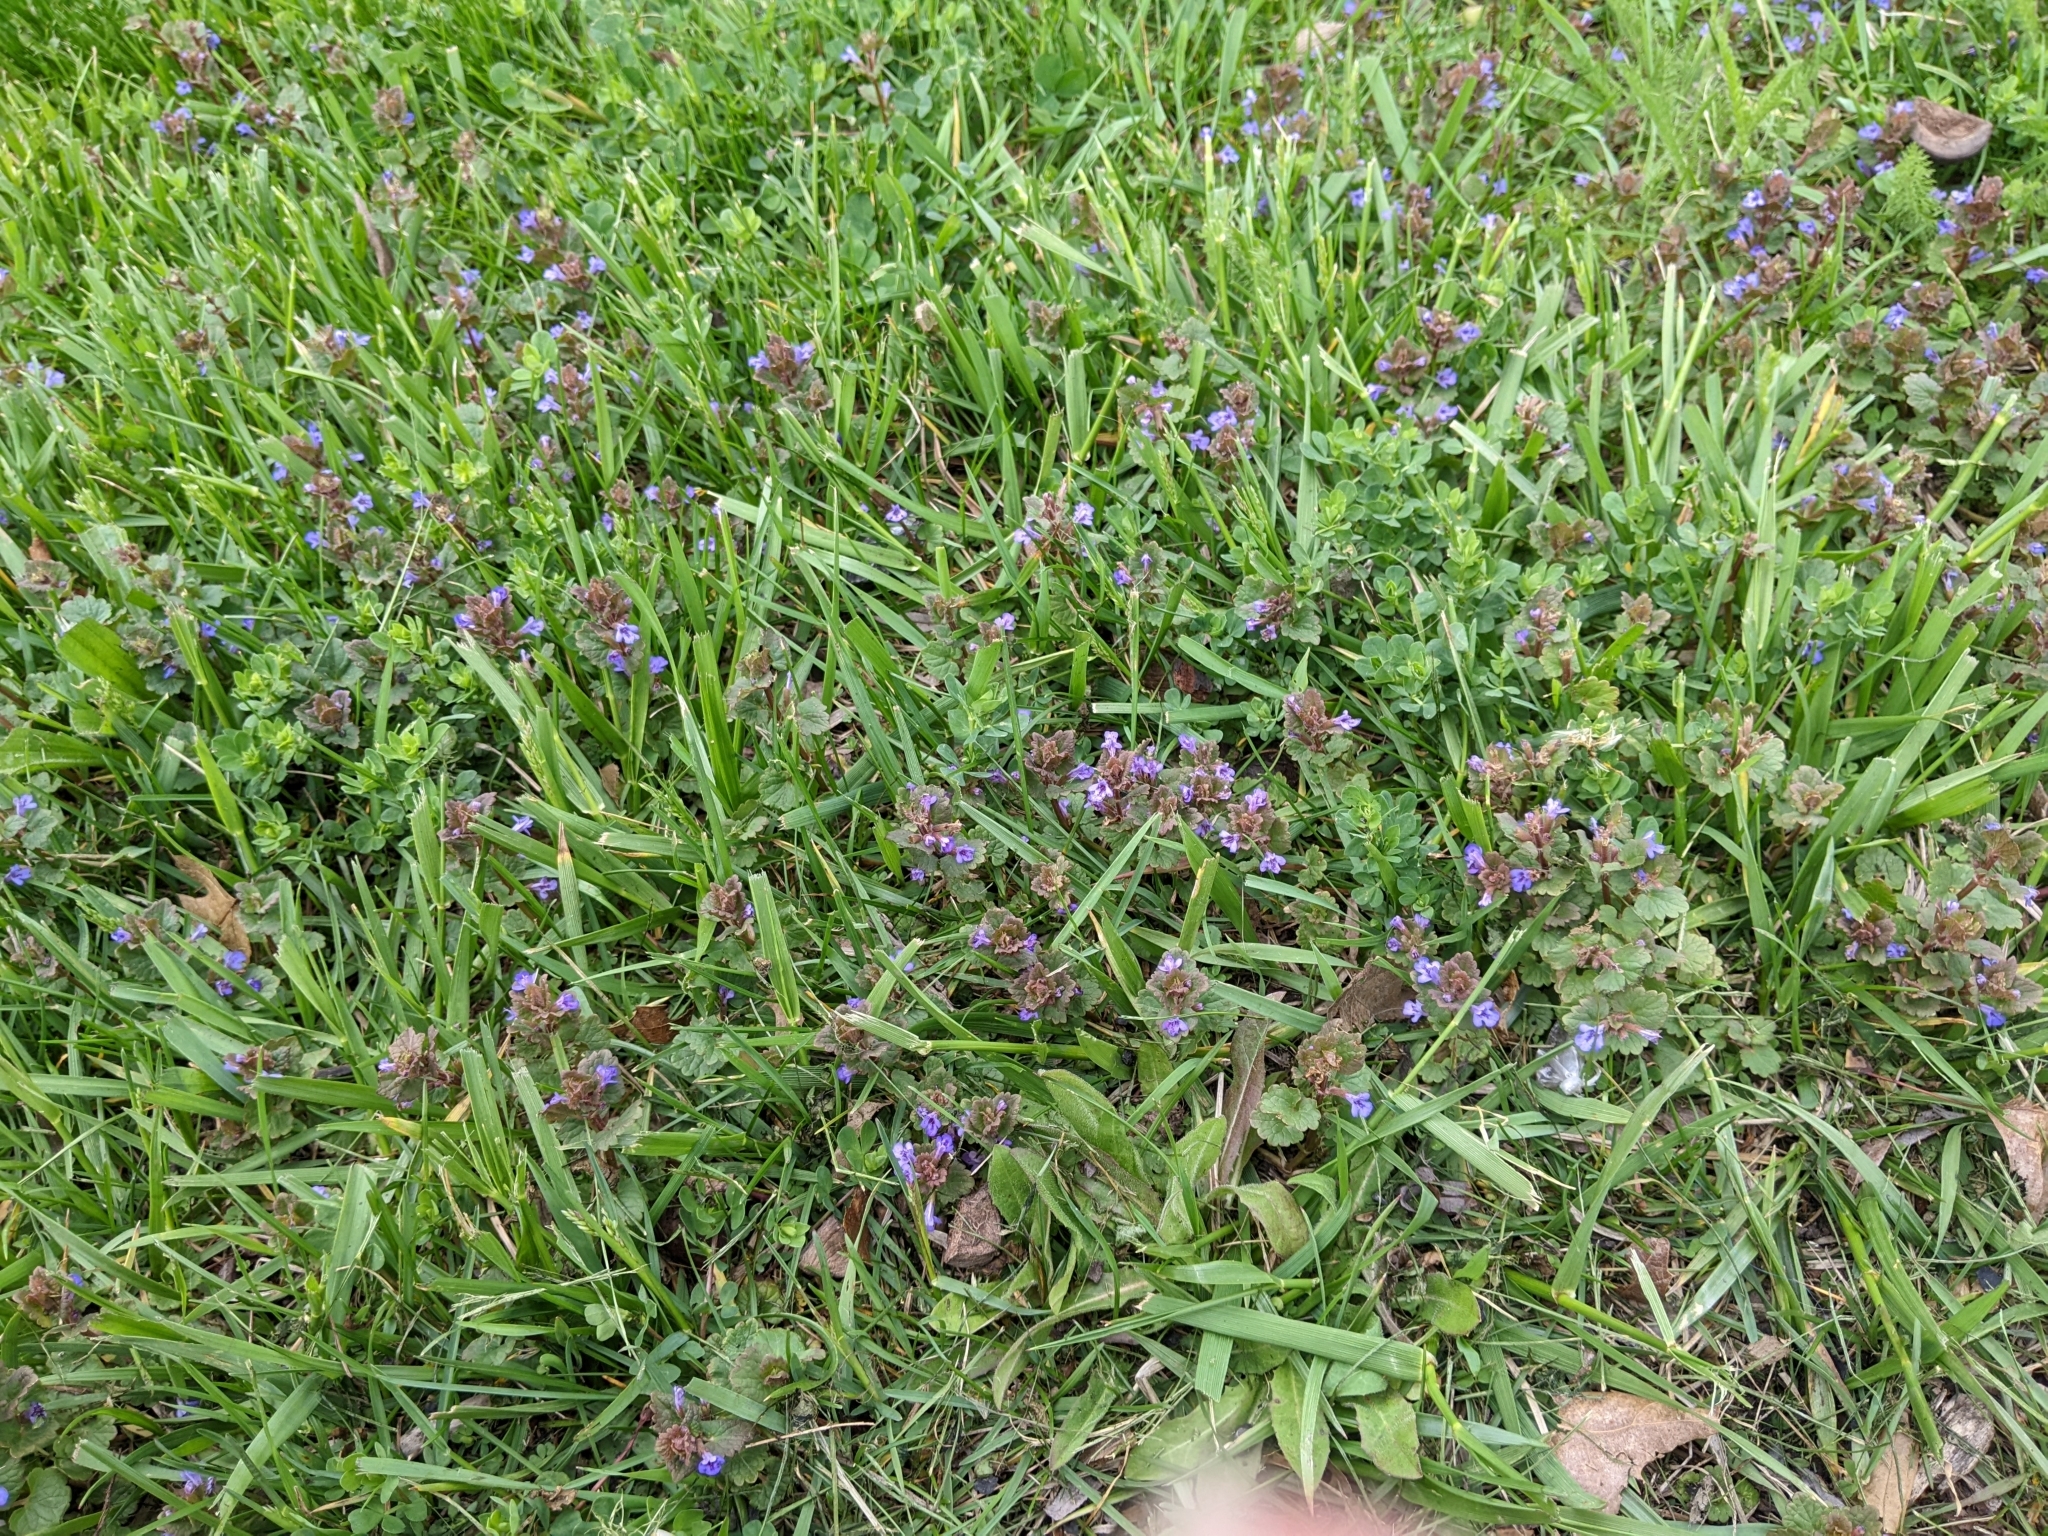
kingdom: Plantae
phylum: Tracheophyta
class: Magnoliopsida
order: Lamiales
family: Lamiaceae
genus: Glechoma
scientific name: Glechoma hederacea
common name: Ground ivy
